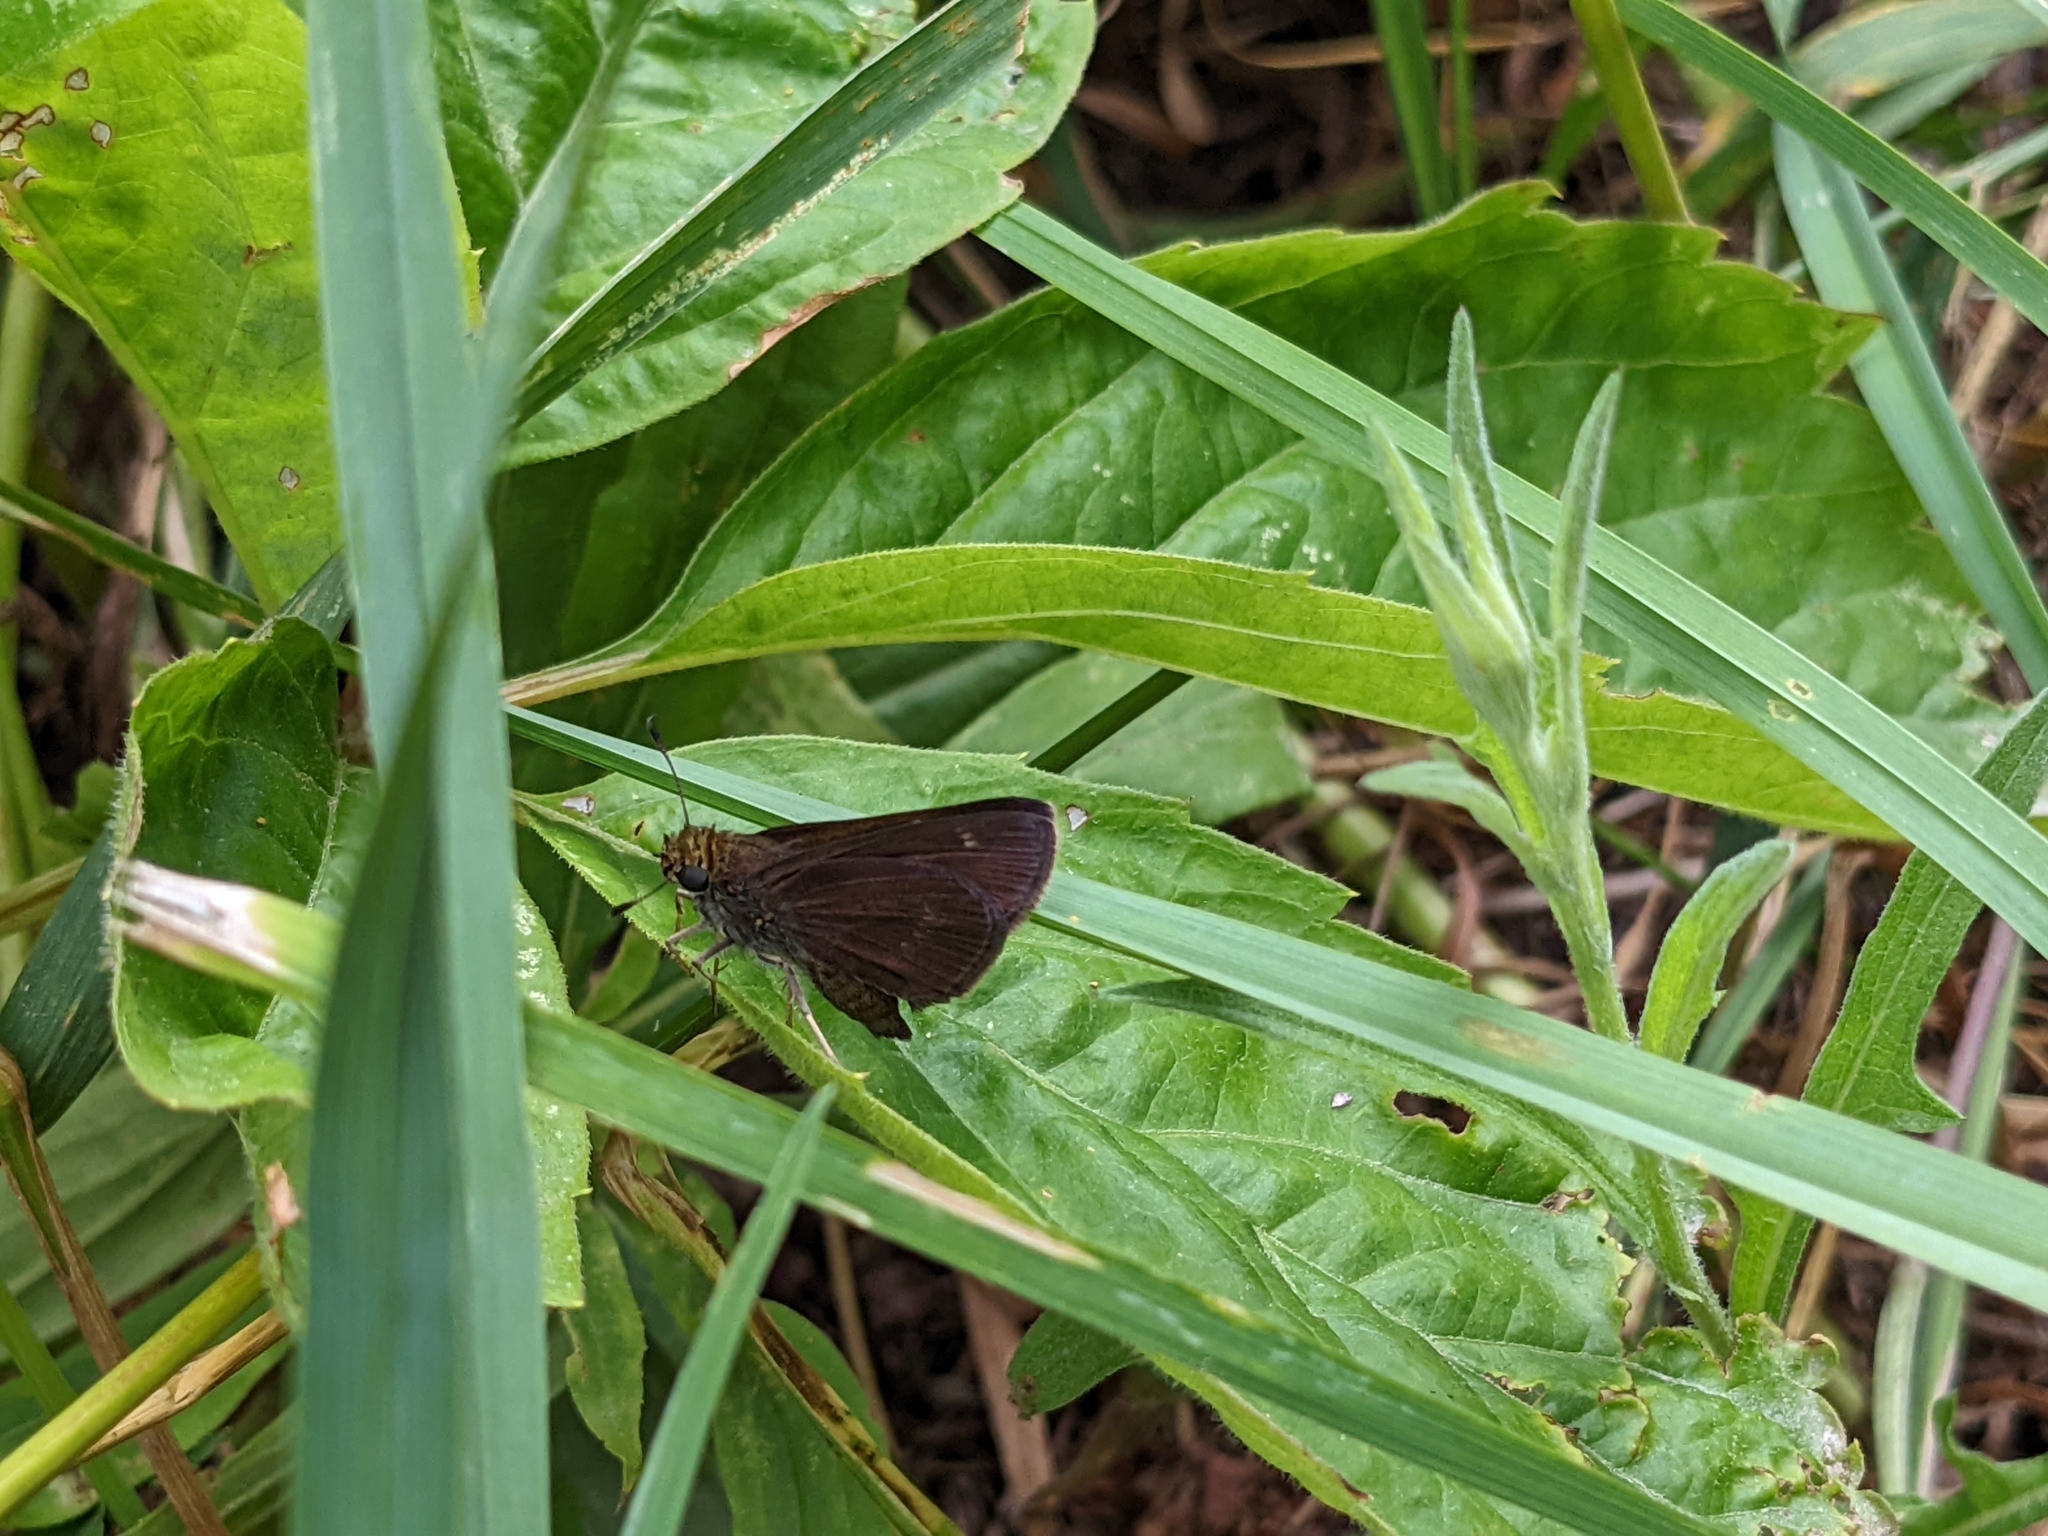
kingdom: Animalia
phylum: Arthropoda
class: Insecta
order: Lepidoptera
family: Hesperiidae
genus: Euphyes
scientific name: Euphyes vestris
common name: Dun skipper
